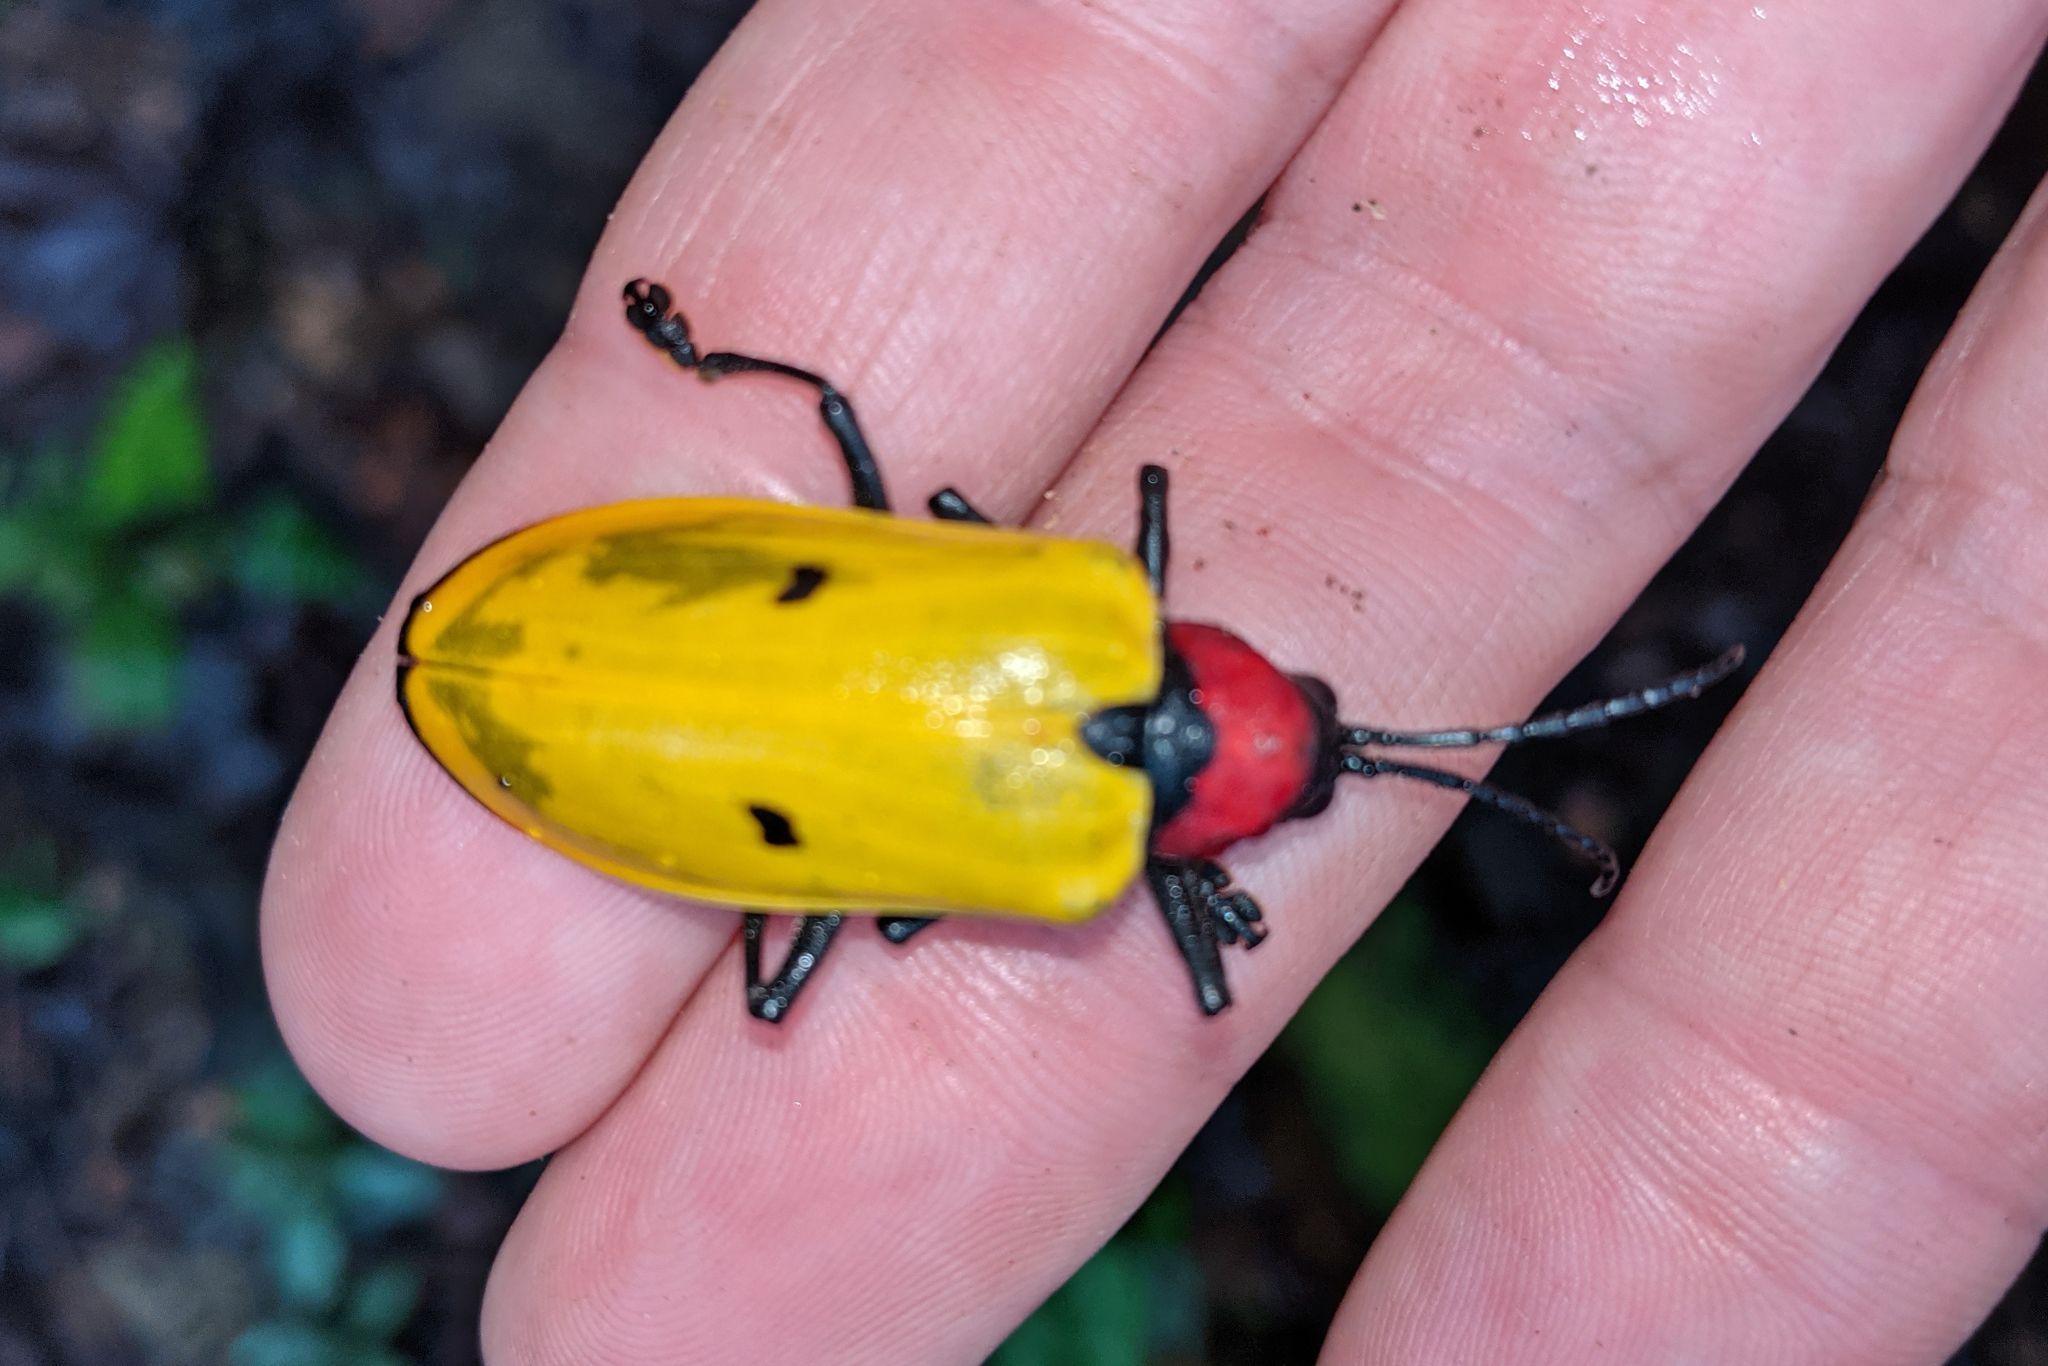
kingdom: Animalia
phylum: Arthropoda
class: Insecta
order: Coleoptera
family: Chrysomelidae
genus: Alurnus
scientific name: Alurnus orbignyi
